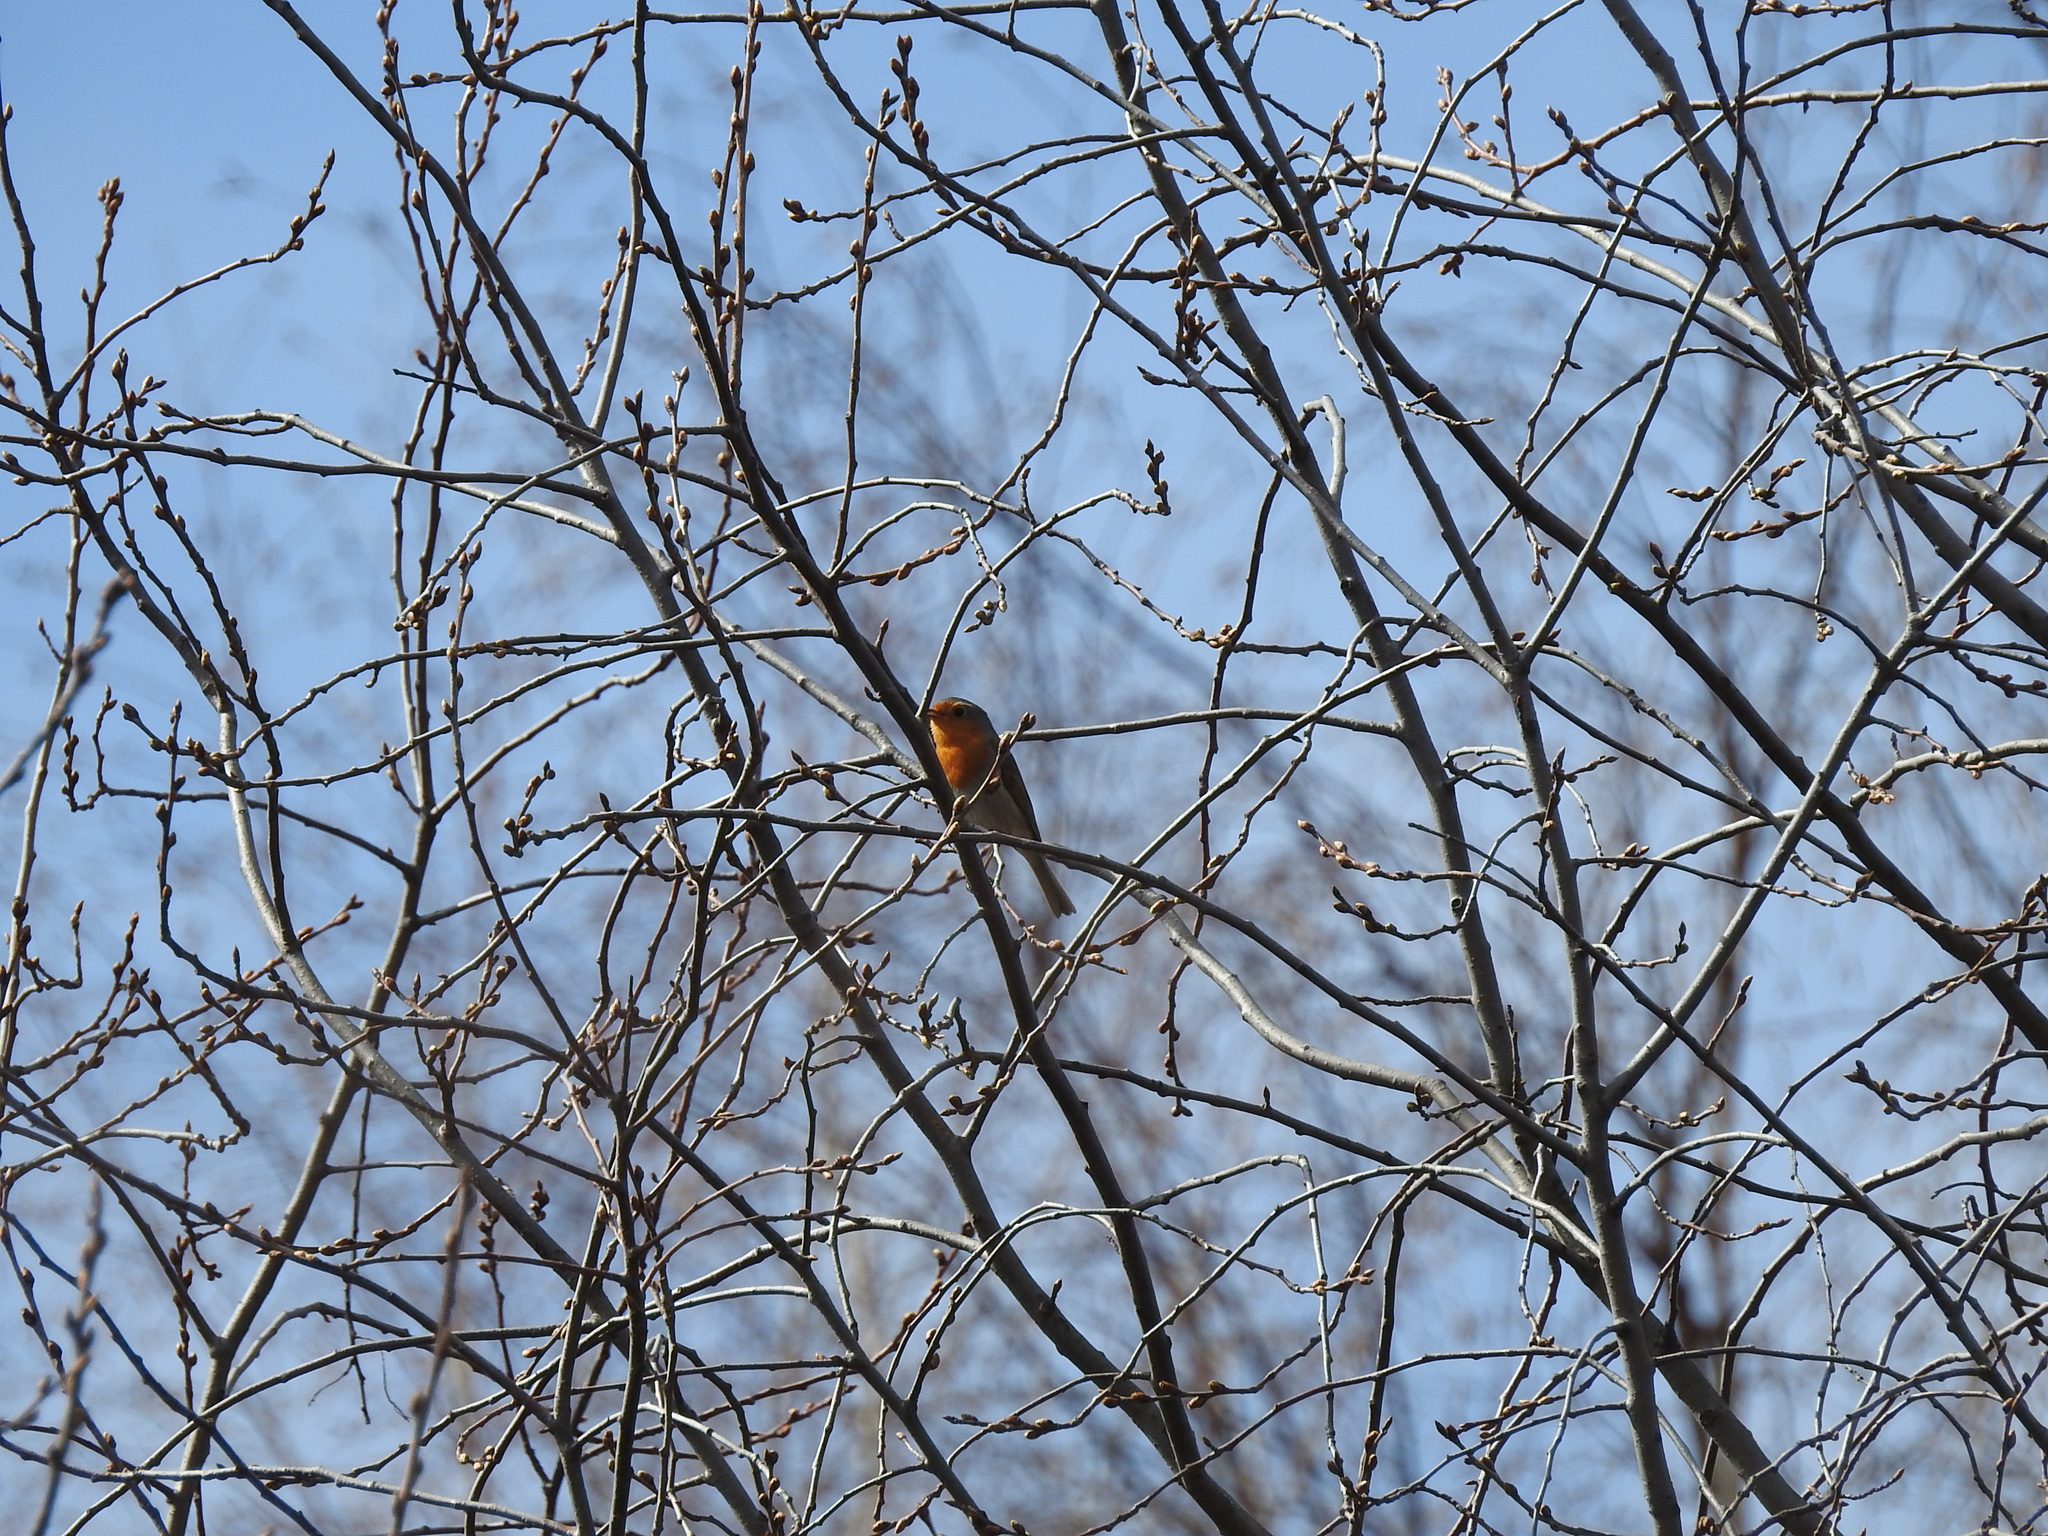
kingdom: Animalia
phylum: Chordata
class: Aves
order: Passeriformes
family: Muscicapidae
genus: Erithacus
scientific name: Erithacus rubecula
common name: European robin
